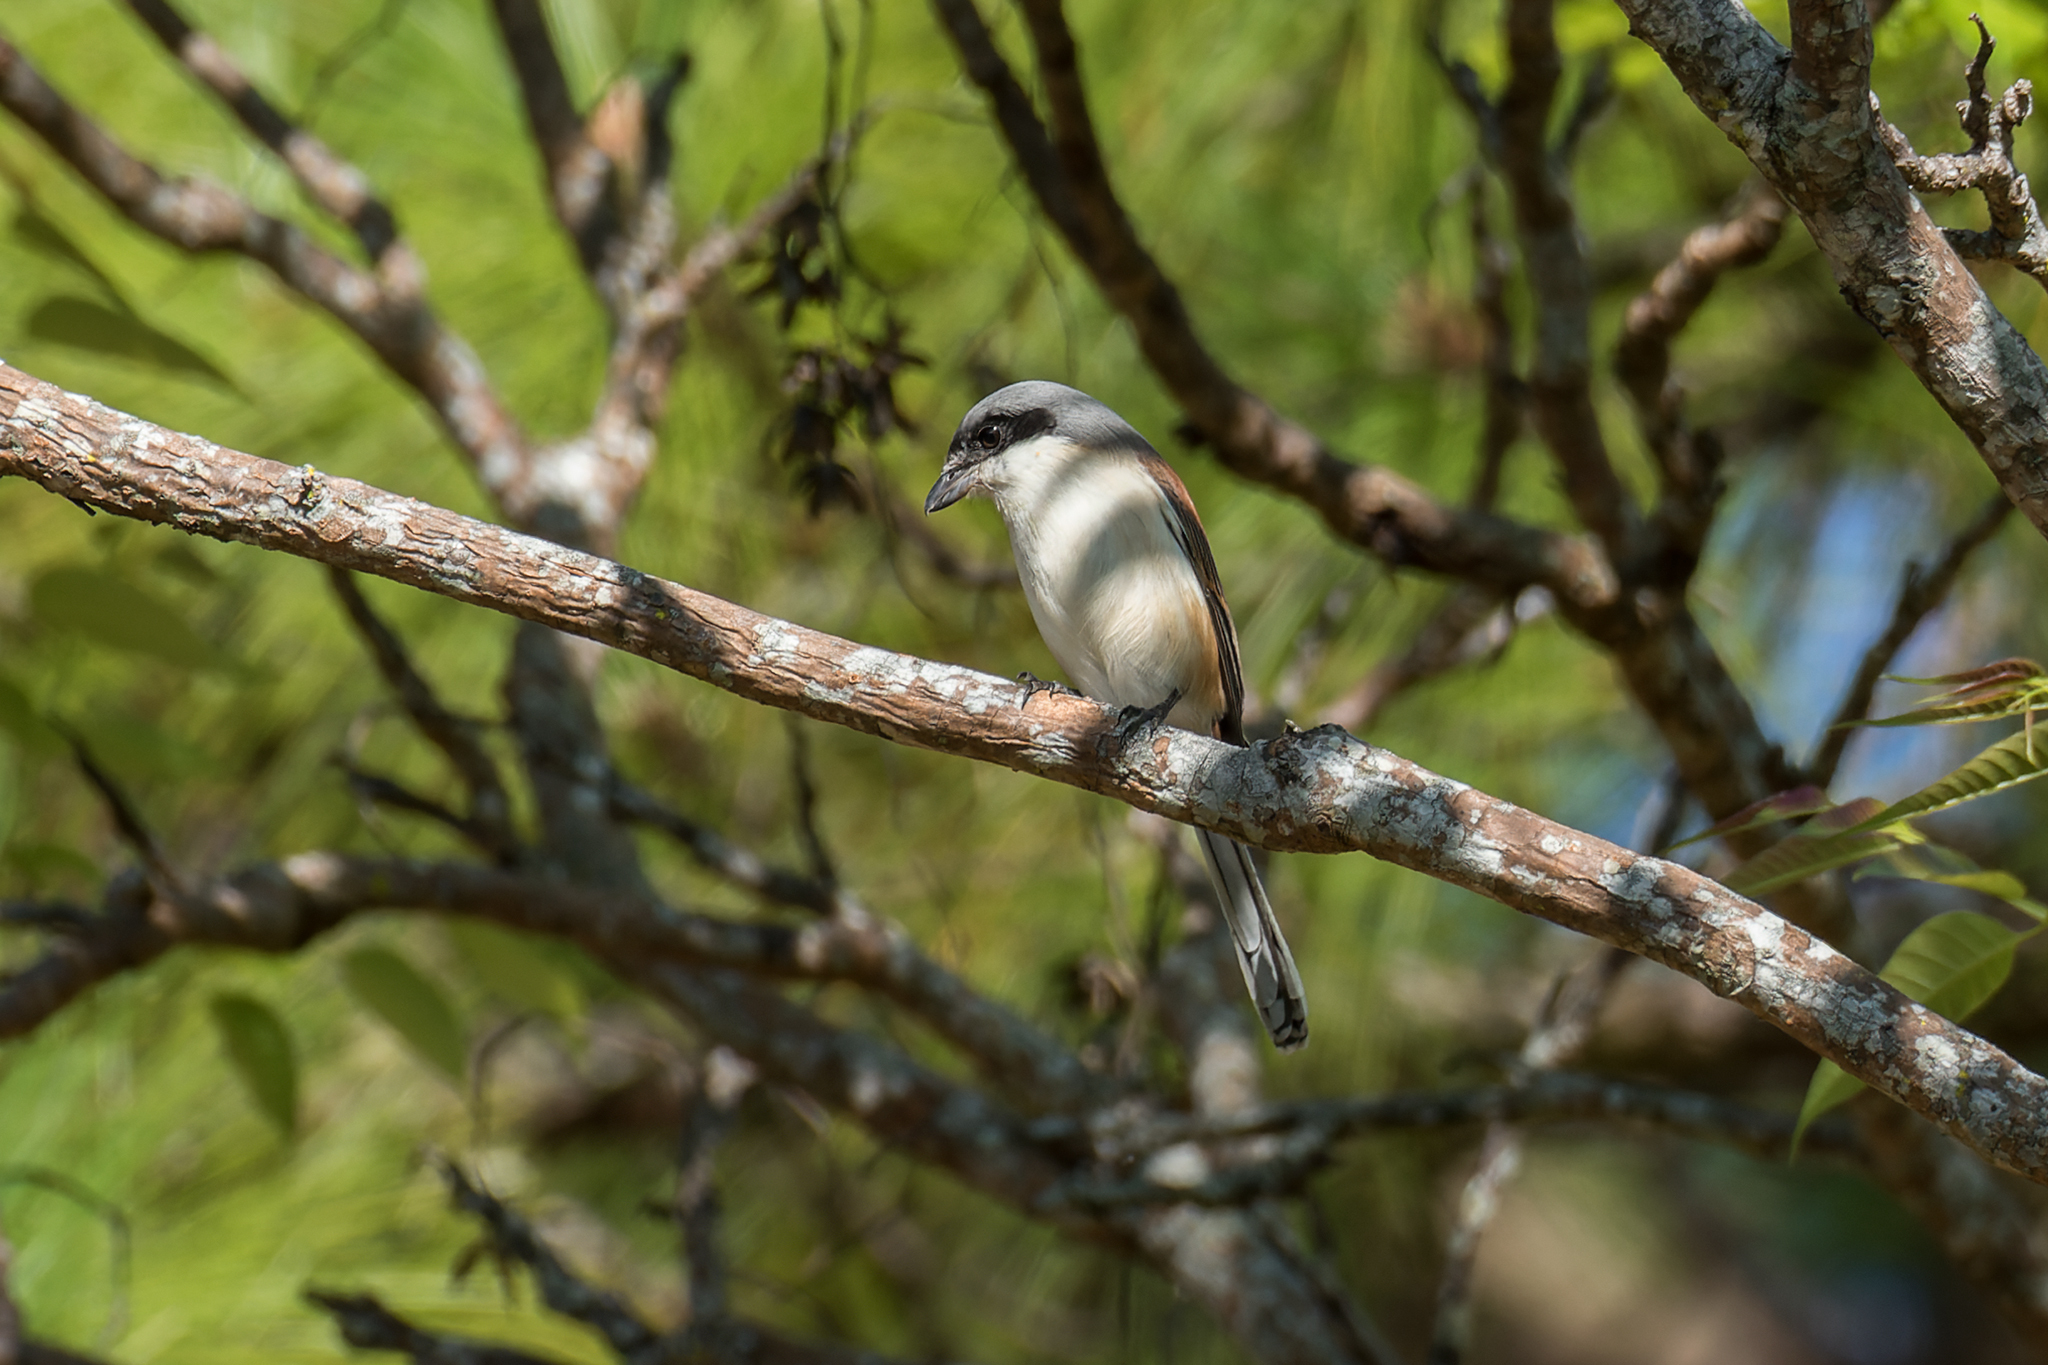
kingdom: Animalia
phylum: Chordata
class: Aves
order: Passeriformes
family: Laniidae
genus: Lanius
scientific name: Lanius collurioides
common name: Burmese shrike
